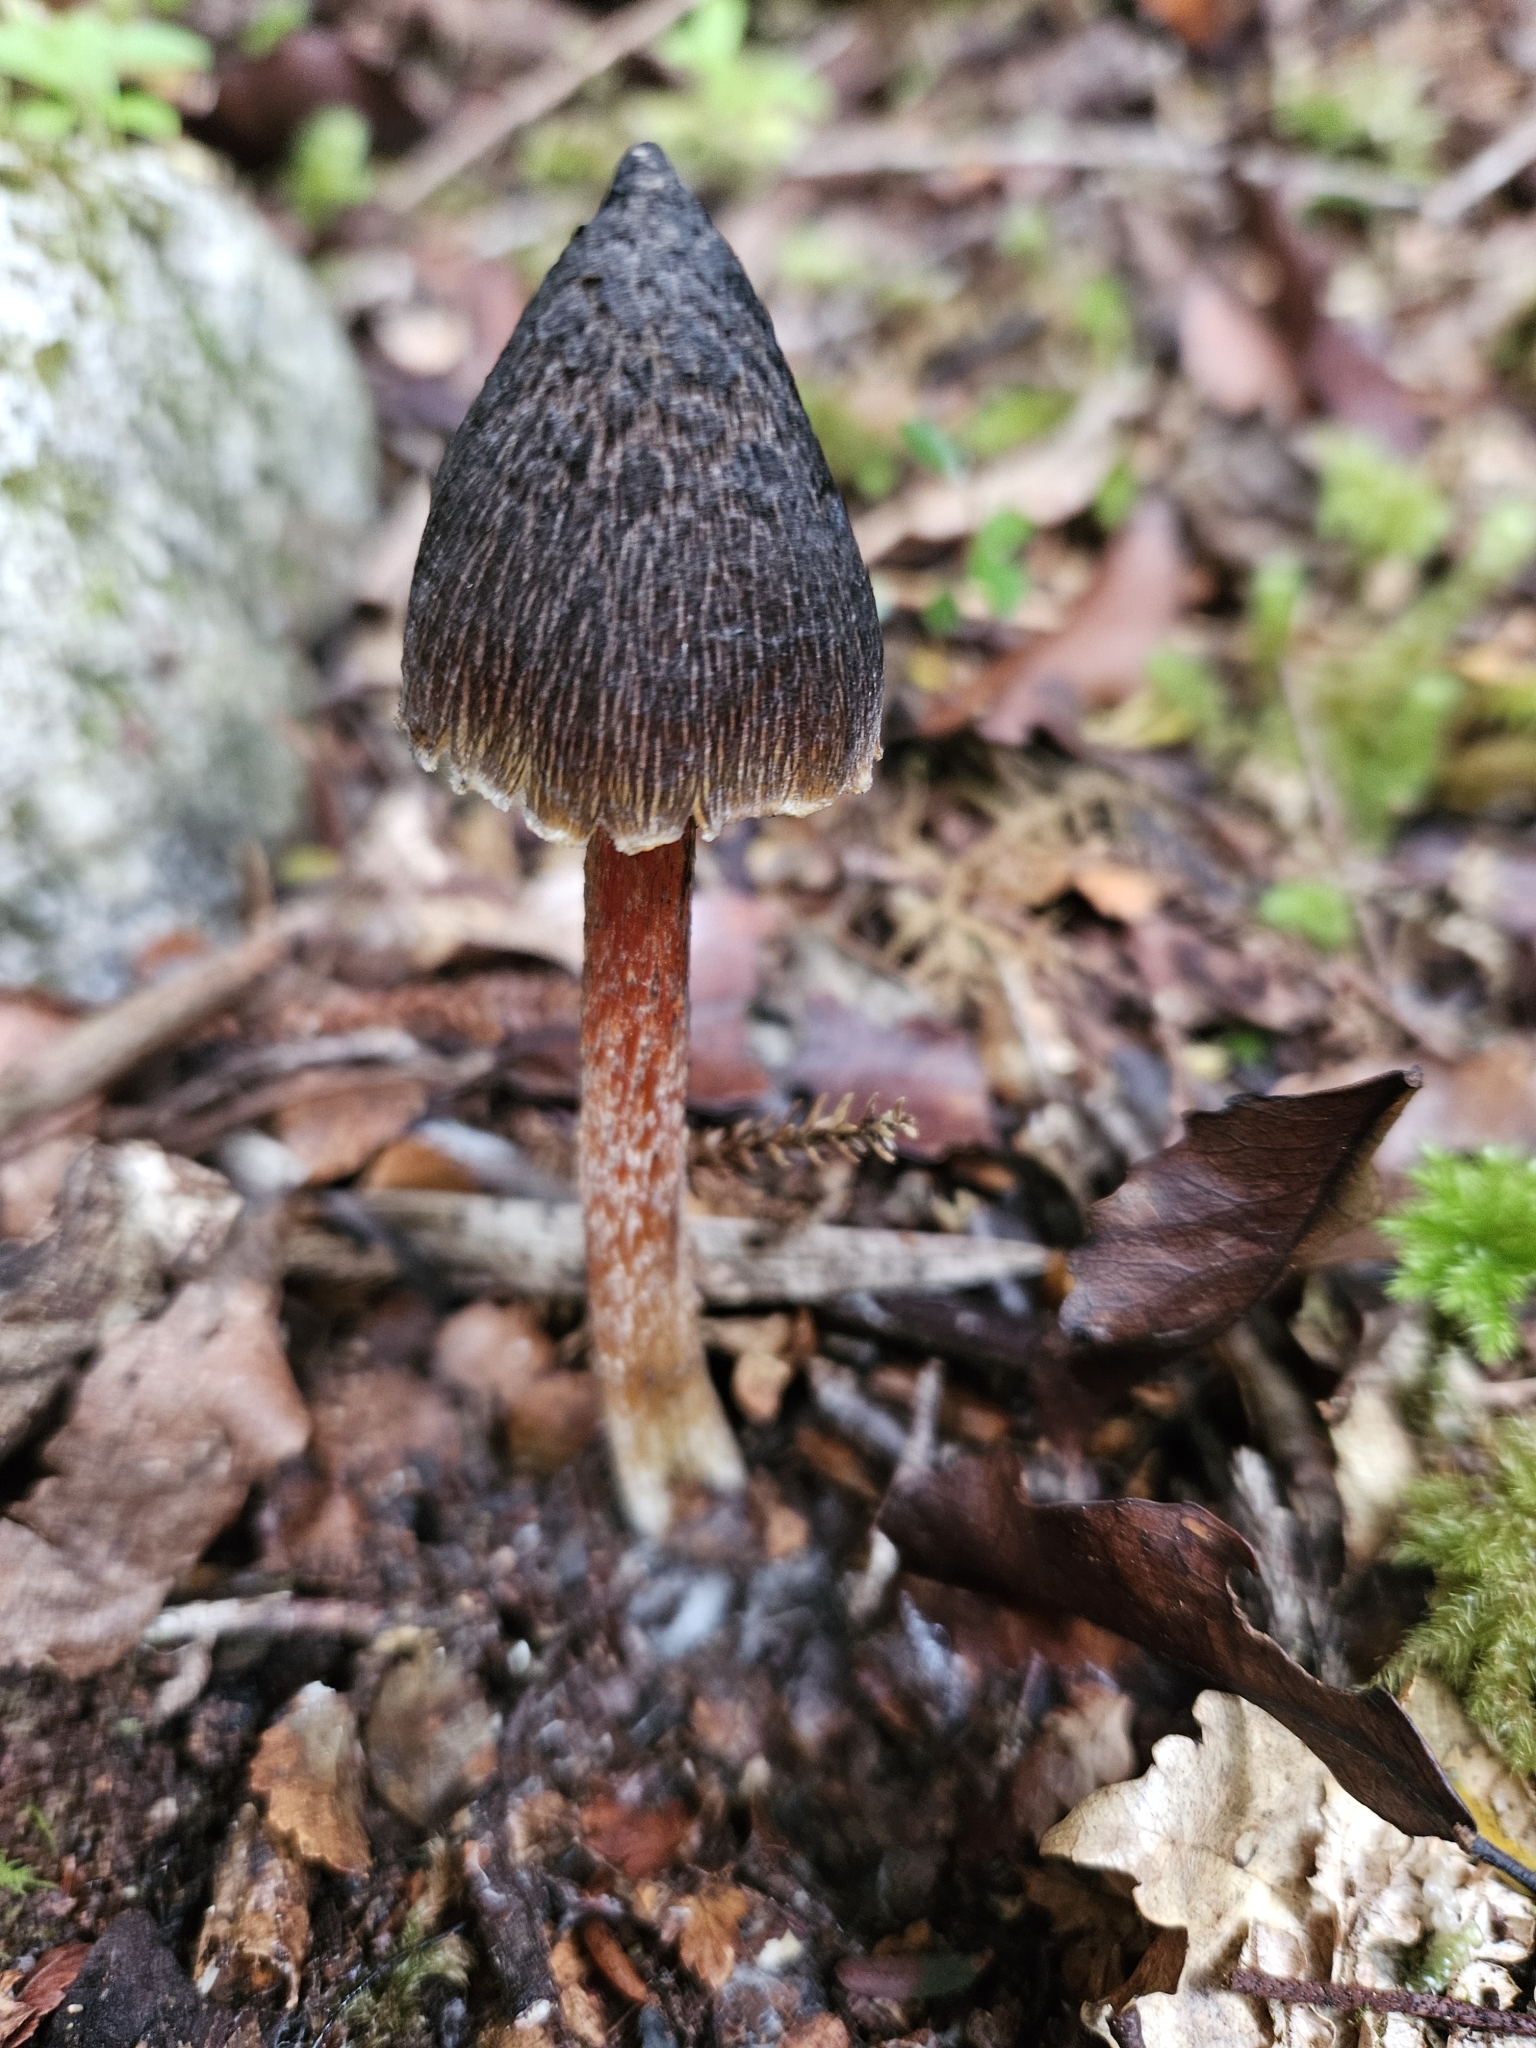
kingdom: Fungi
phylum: Basidiomycota
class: Agaricomycetes
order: Agaricales
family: Hygrophoraceae
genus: Hygrocybe
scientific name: Hygrocybe astatogala
